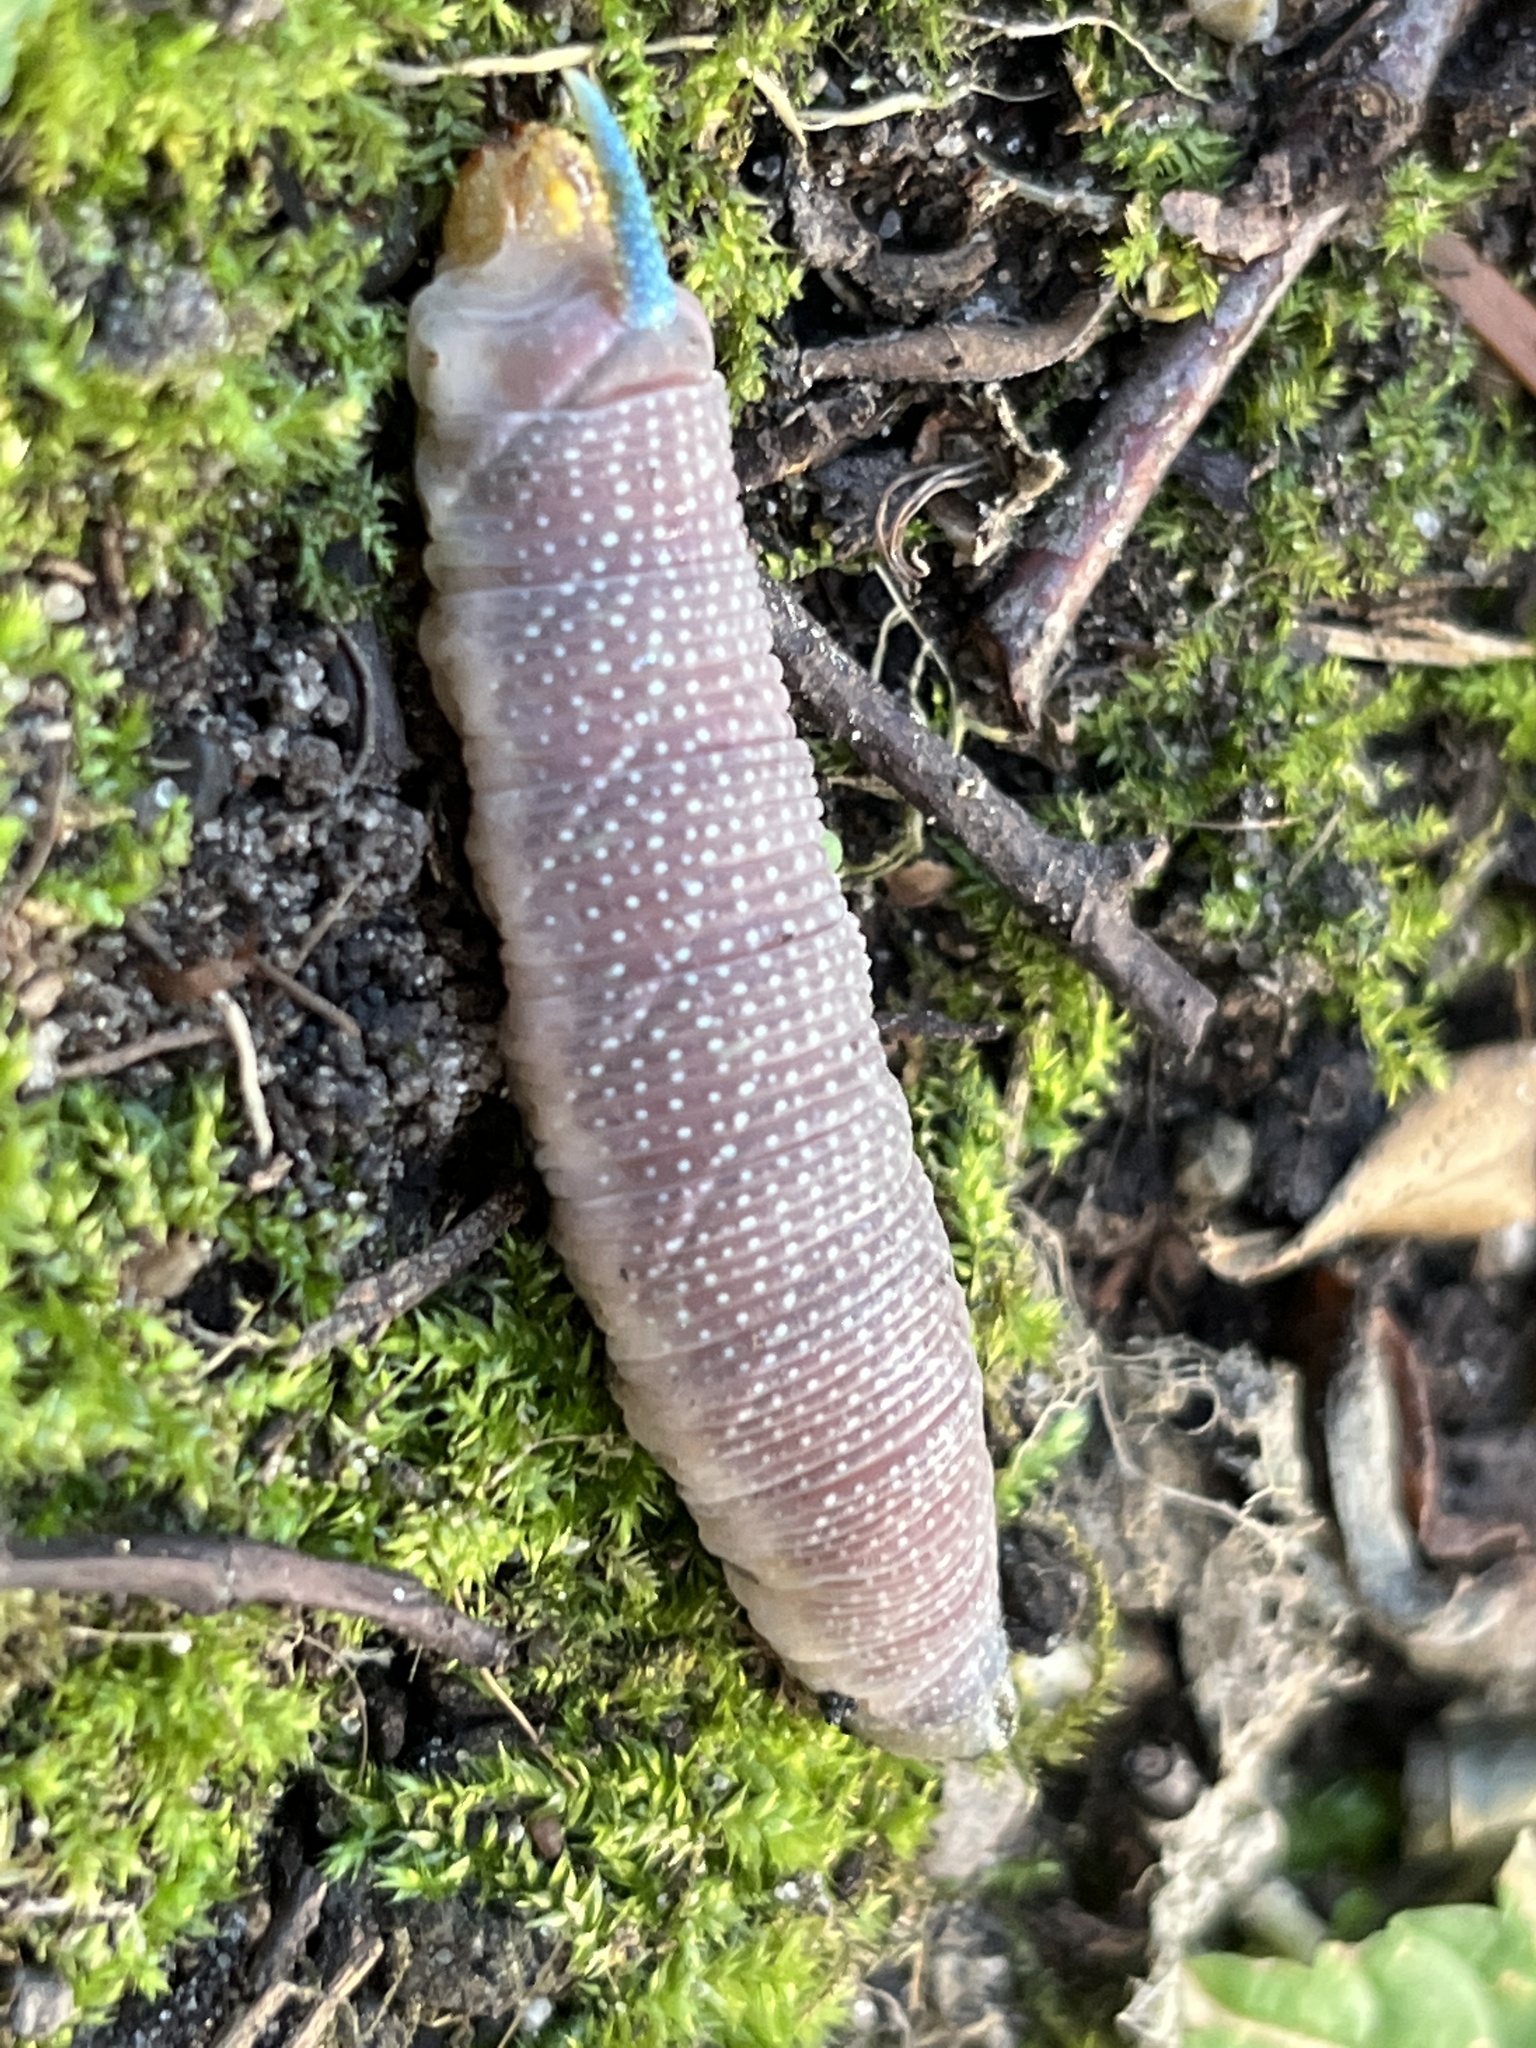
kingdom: Animalia
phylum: Arthropoda
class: Insecta
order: Lepidoptera
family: Sphingidae
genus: Mimas
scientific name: Mimas tiliae
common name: Lime hawk-moth
